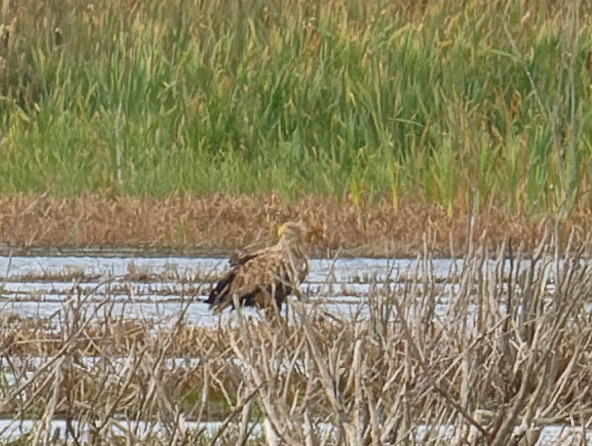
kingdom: Animalia
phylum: Chordata
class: Aves
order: Accipitriformes
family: Accipitridae
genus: Haliaeetus
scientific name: Haliaeetus albicilla
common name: White-tailed eagle
